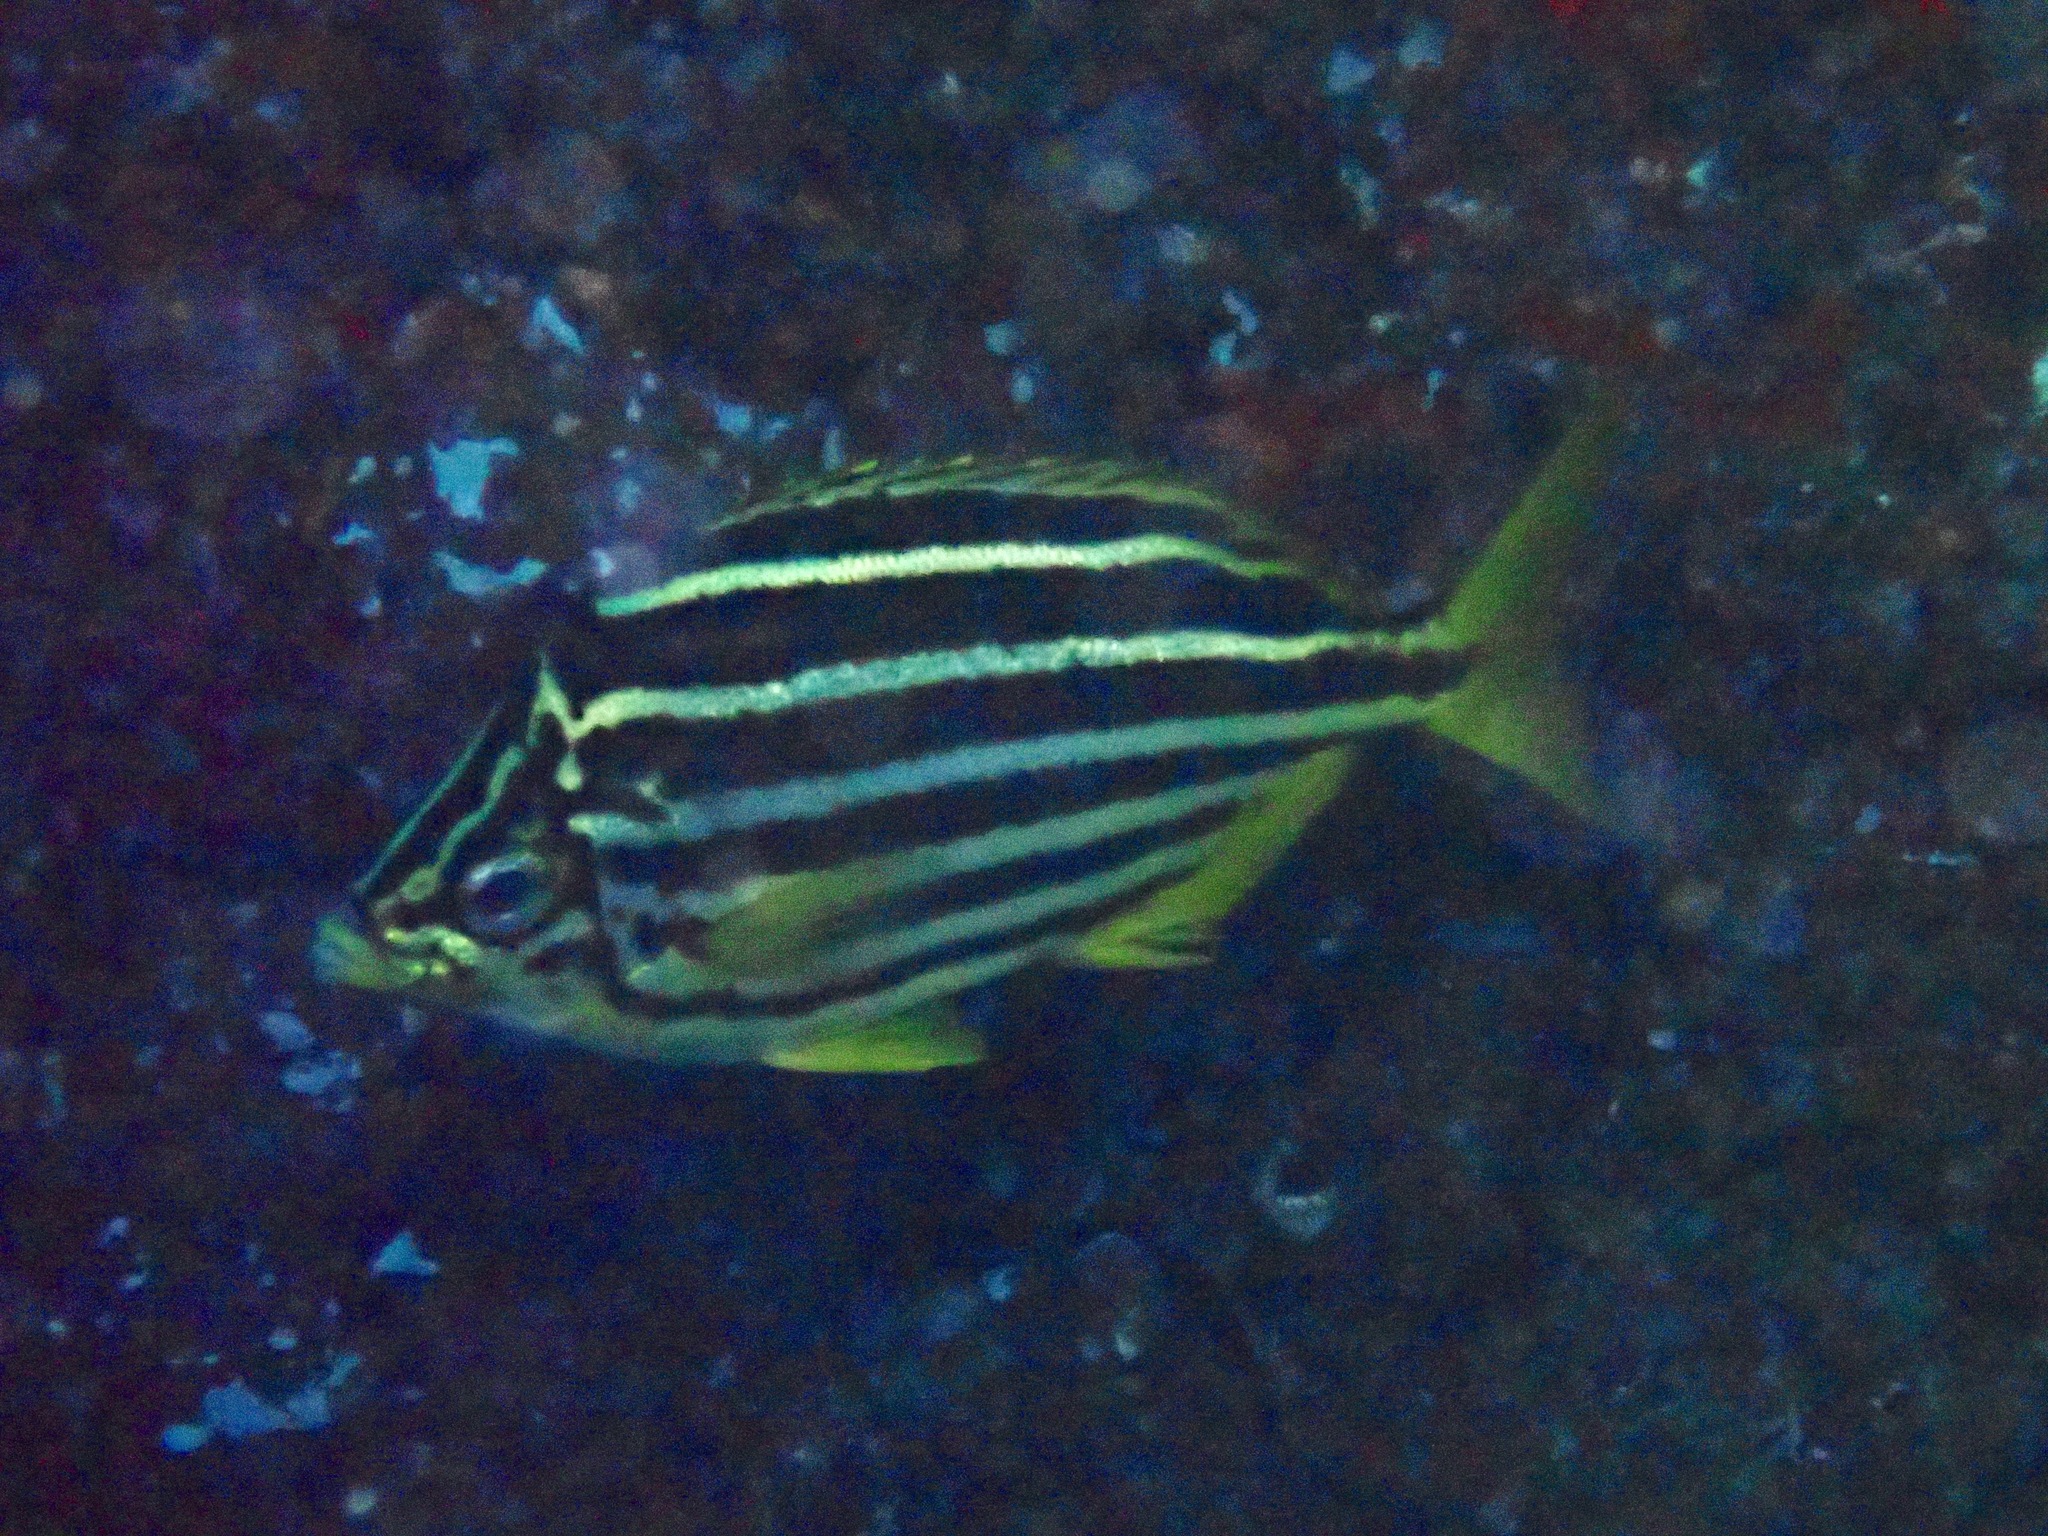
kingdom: Animalia
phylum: Chordata
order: Perciformes
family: Kyphosidae
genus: Atypichthys
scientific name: Atypichthys latus
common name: Mado
